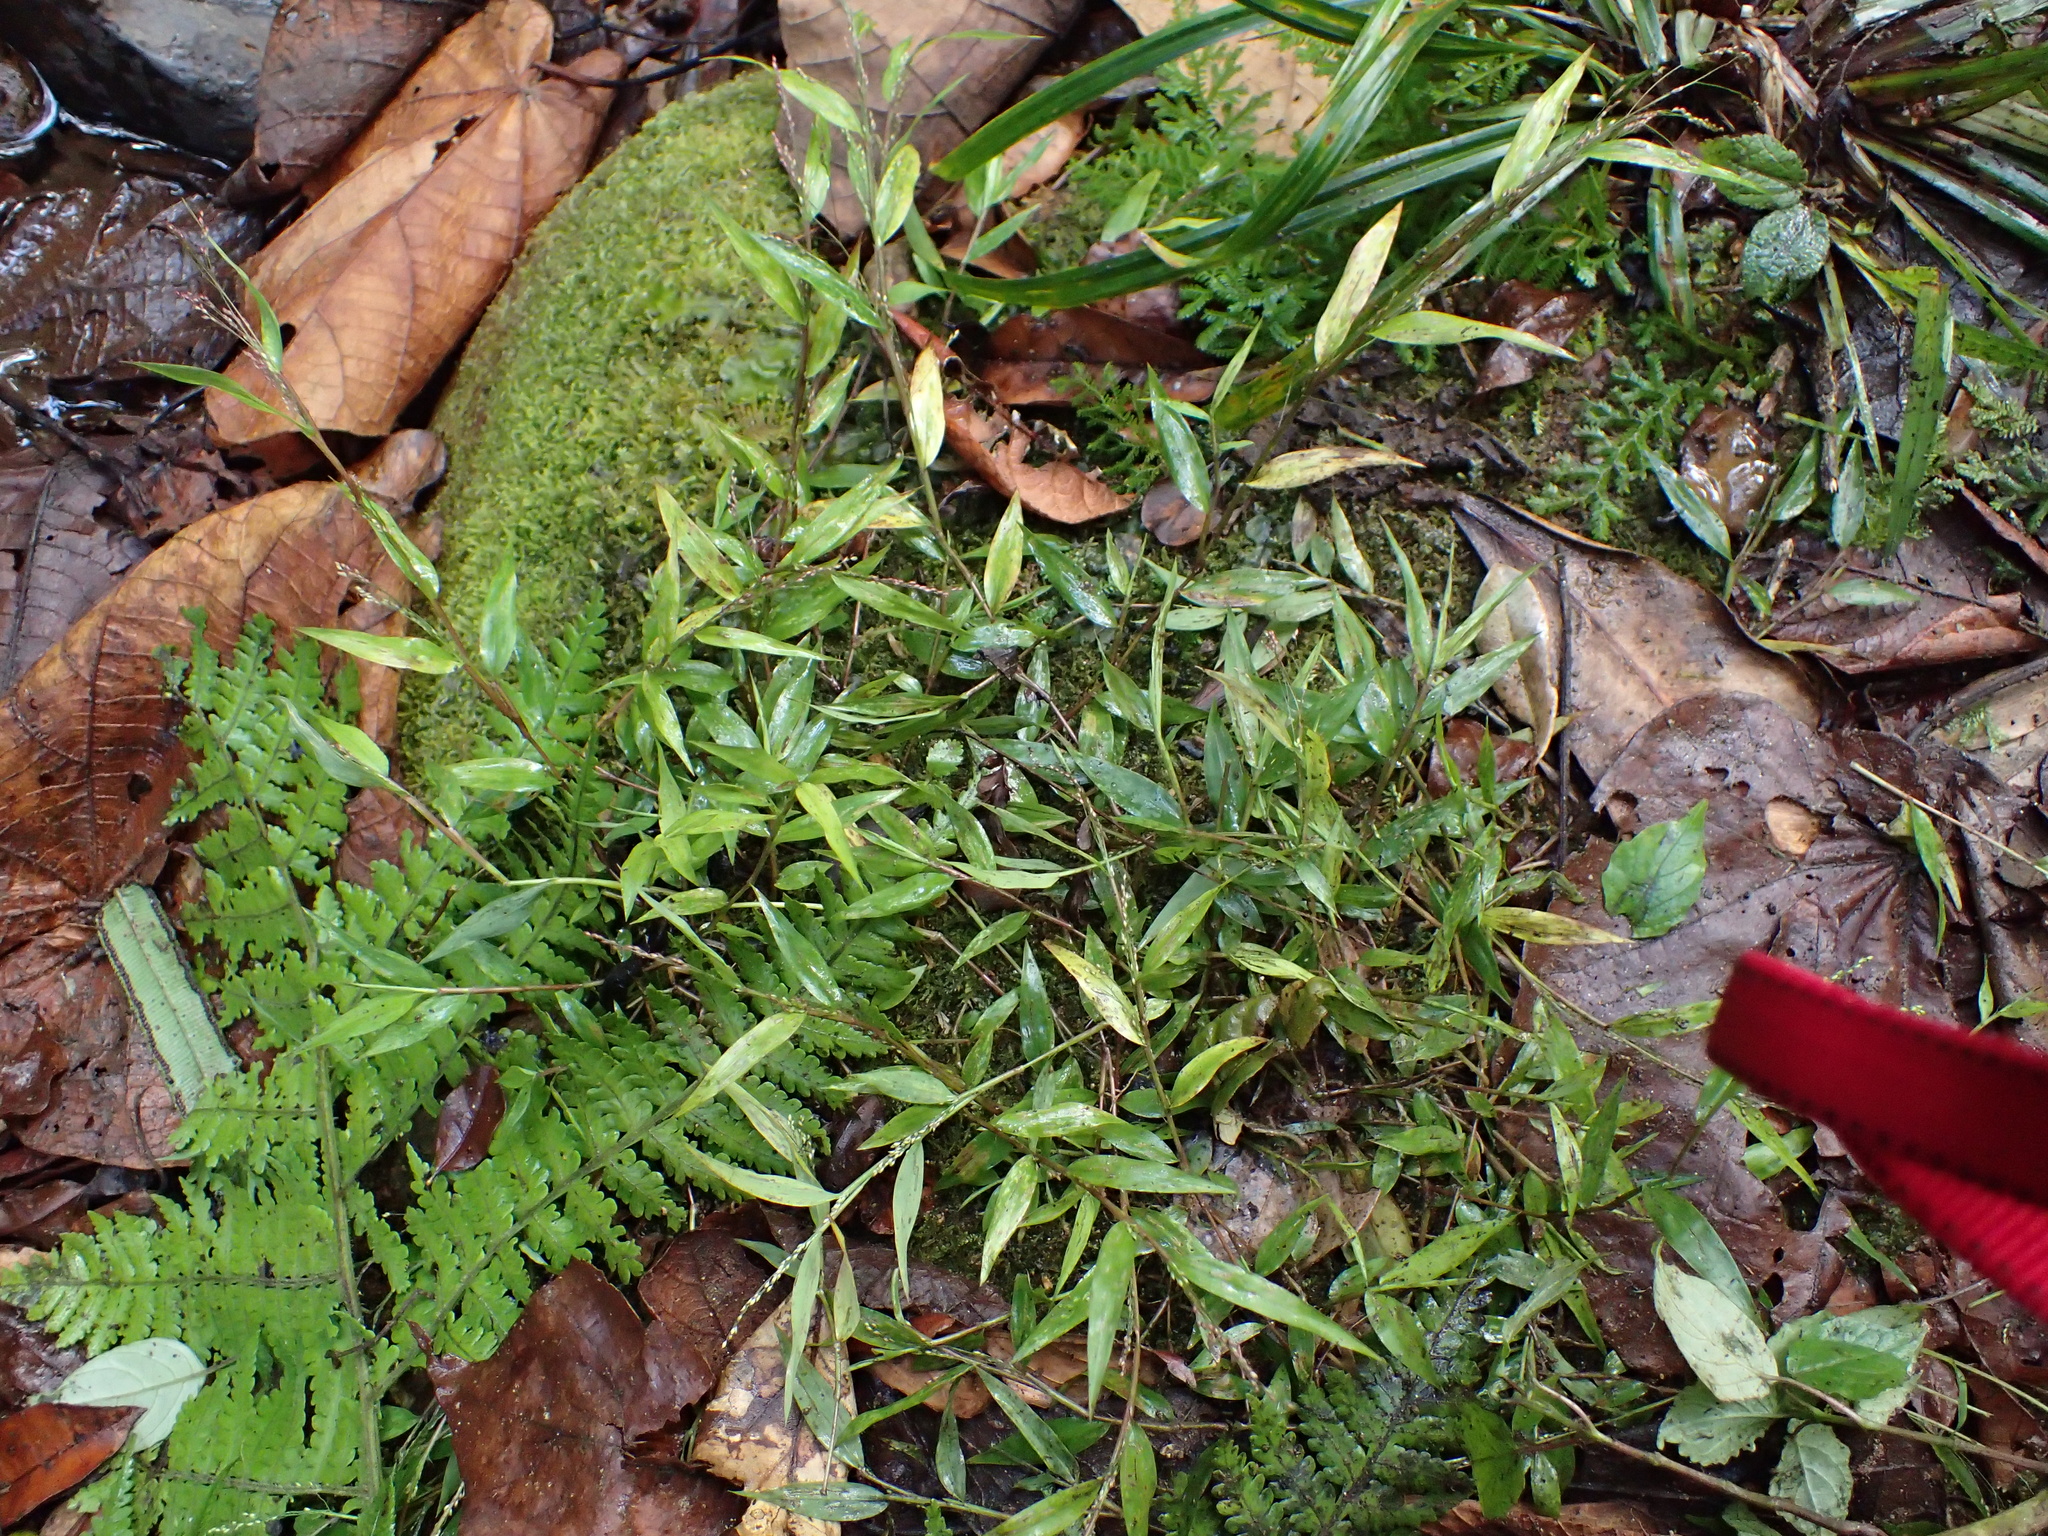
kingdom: Plantae
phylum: Tracheophyta
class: Liliopsida
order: Poales
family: Poaceae
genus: Panicum
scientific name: Panicum mitopus
